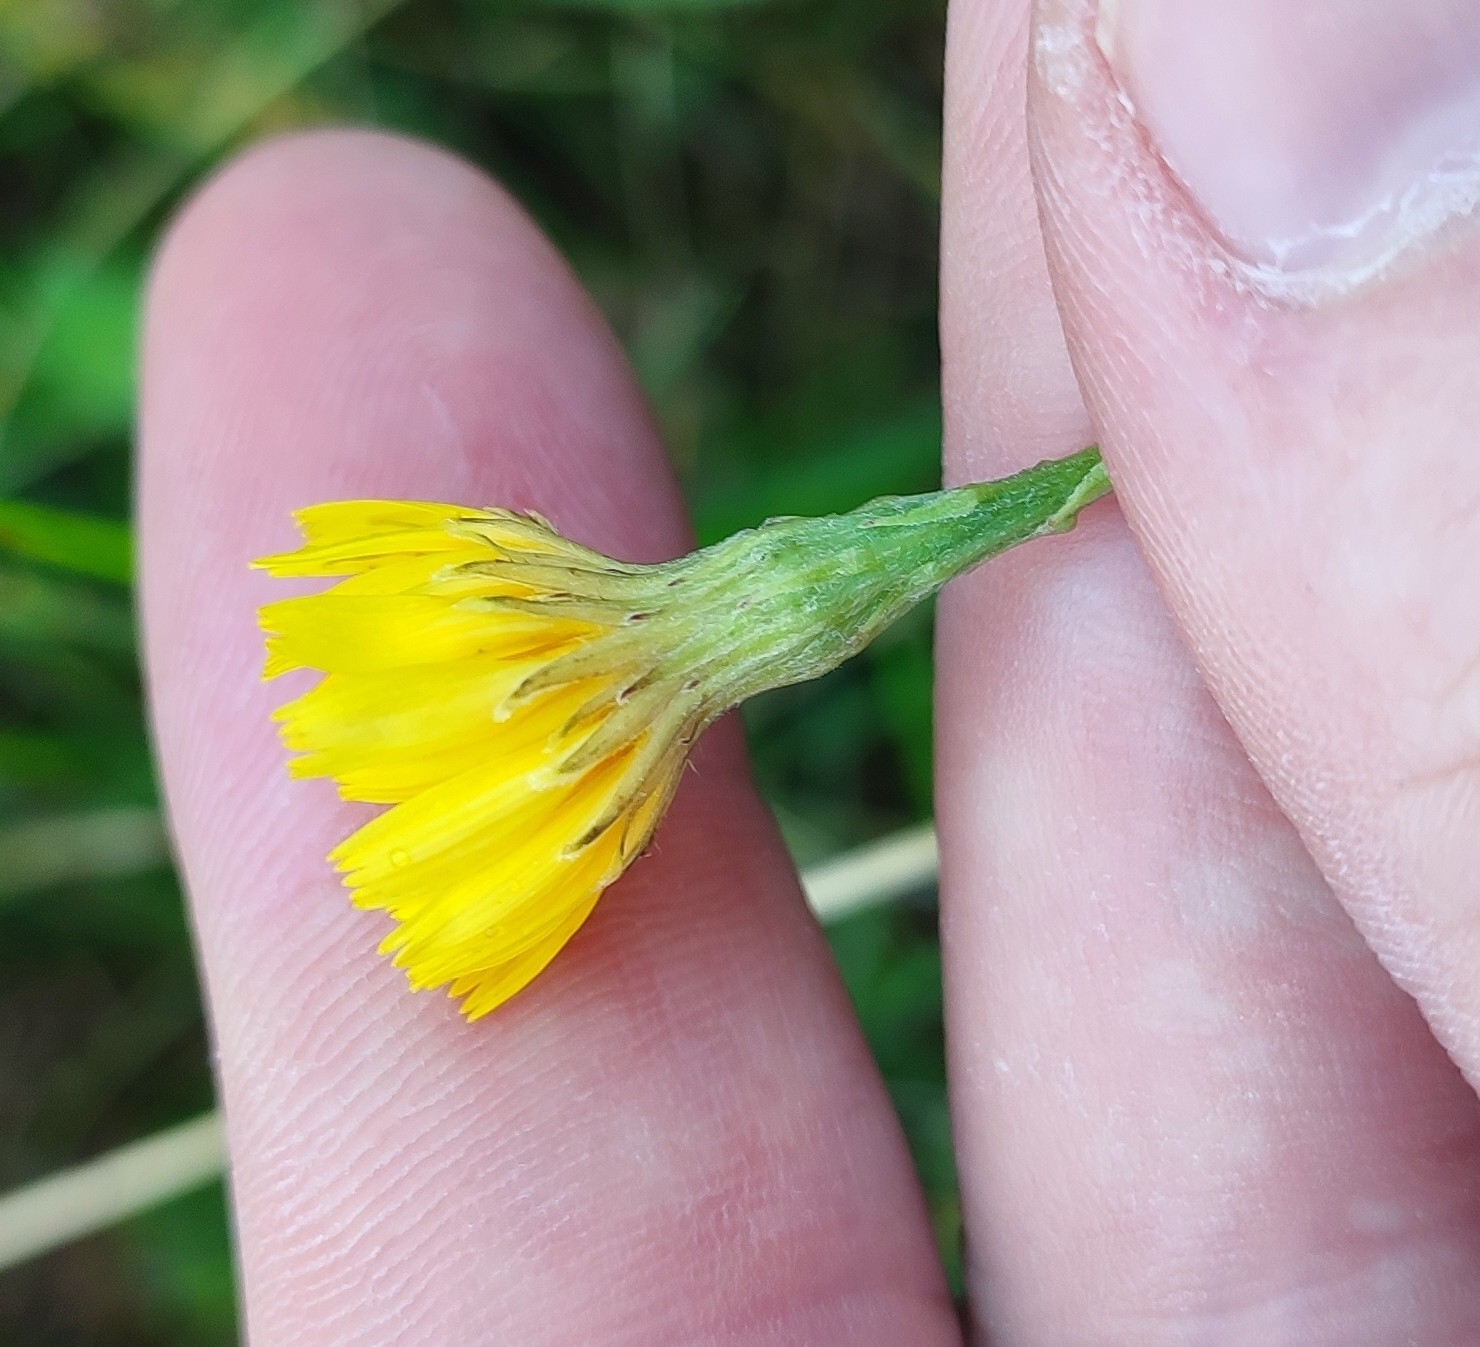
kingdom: Plantae
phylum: Tracheophyta
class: Magnoliopsida
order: Asterales
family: Asteraceae
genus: Scorzoneroides
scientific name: Scorzoneroides autumnalis
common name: Autumn hawkbit
